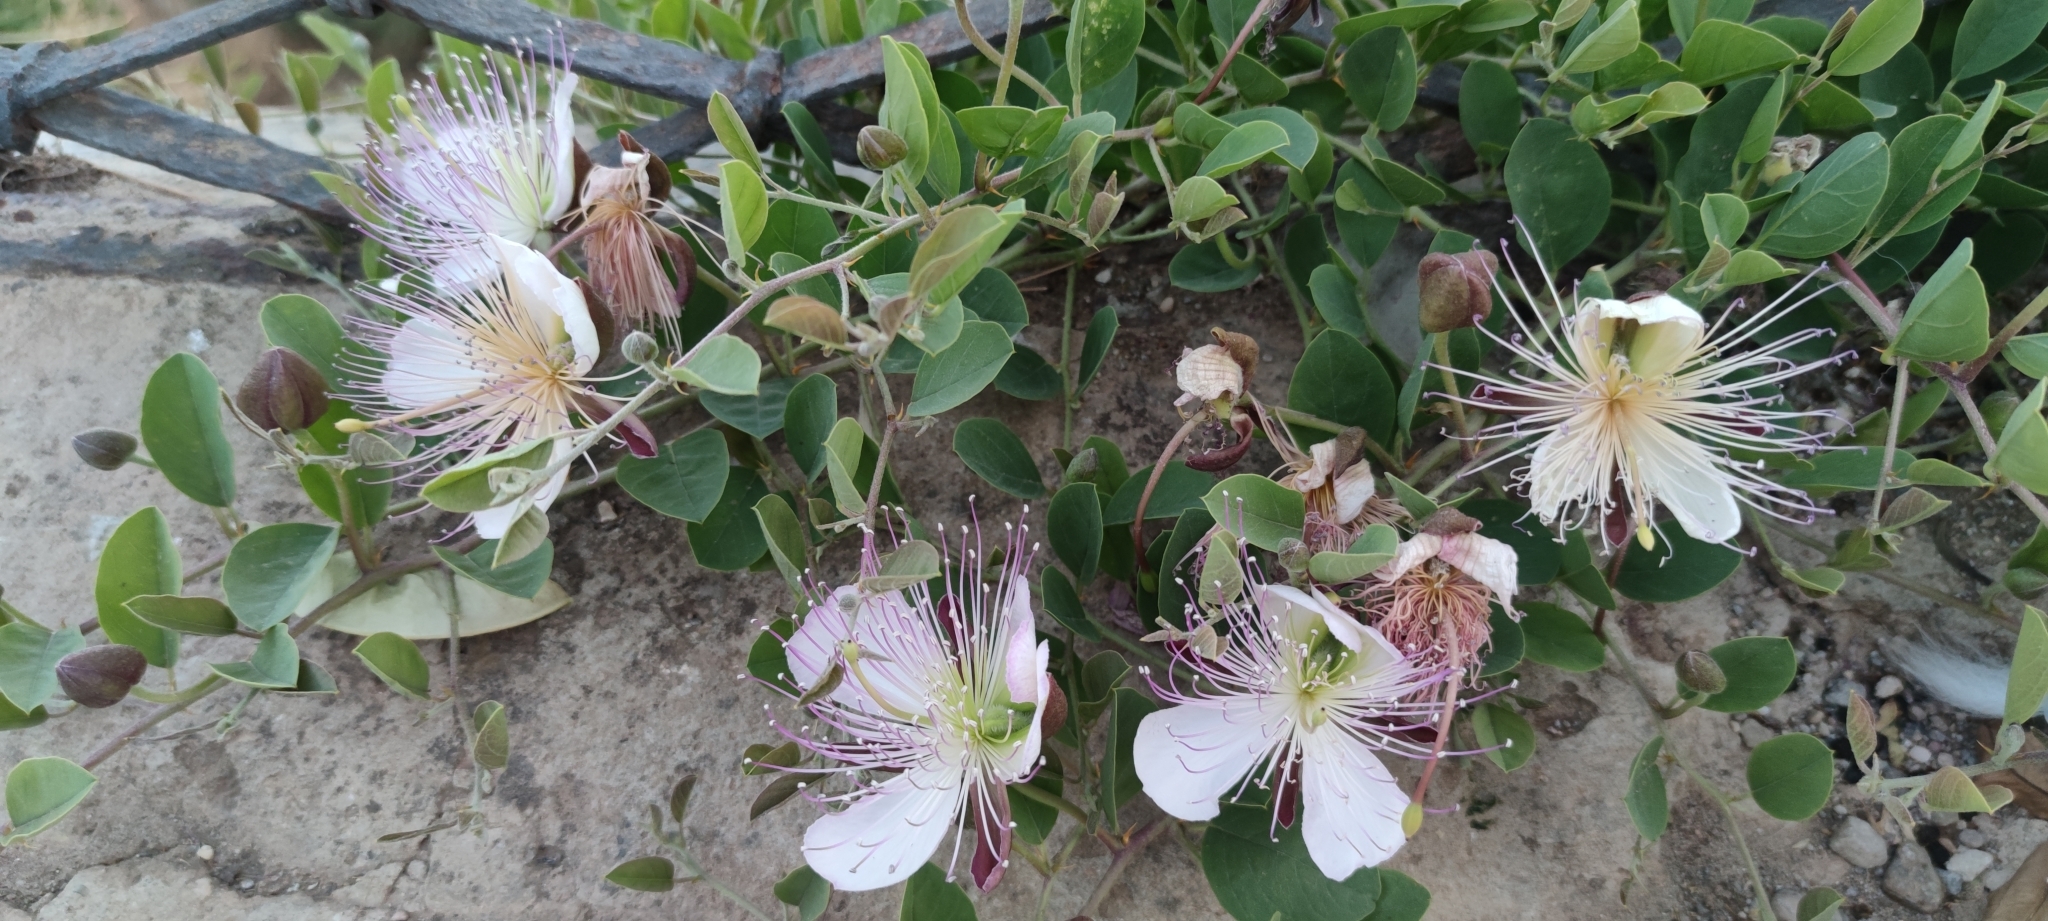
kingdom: Plantae
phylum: Tracheophyta
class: Magnoliopsida
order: Brassicales
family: Capparaceae
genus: Capparis
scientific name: Capparis spinosa
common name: Caper
